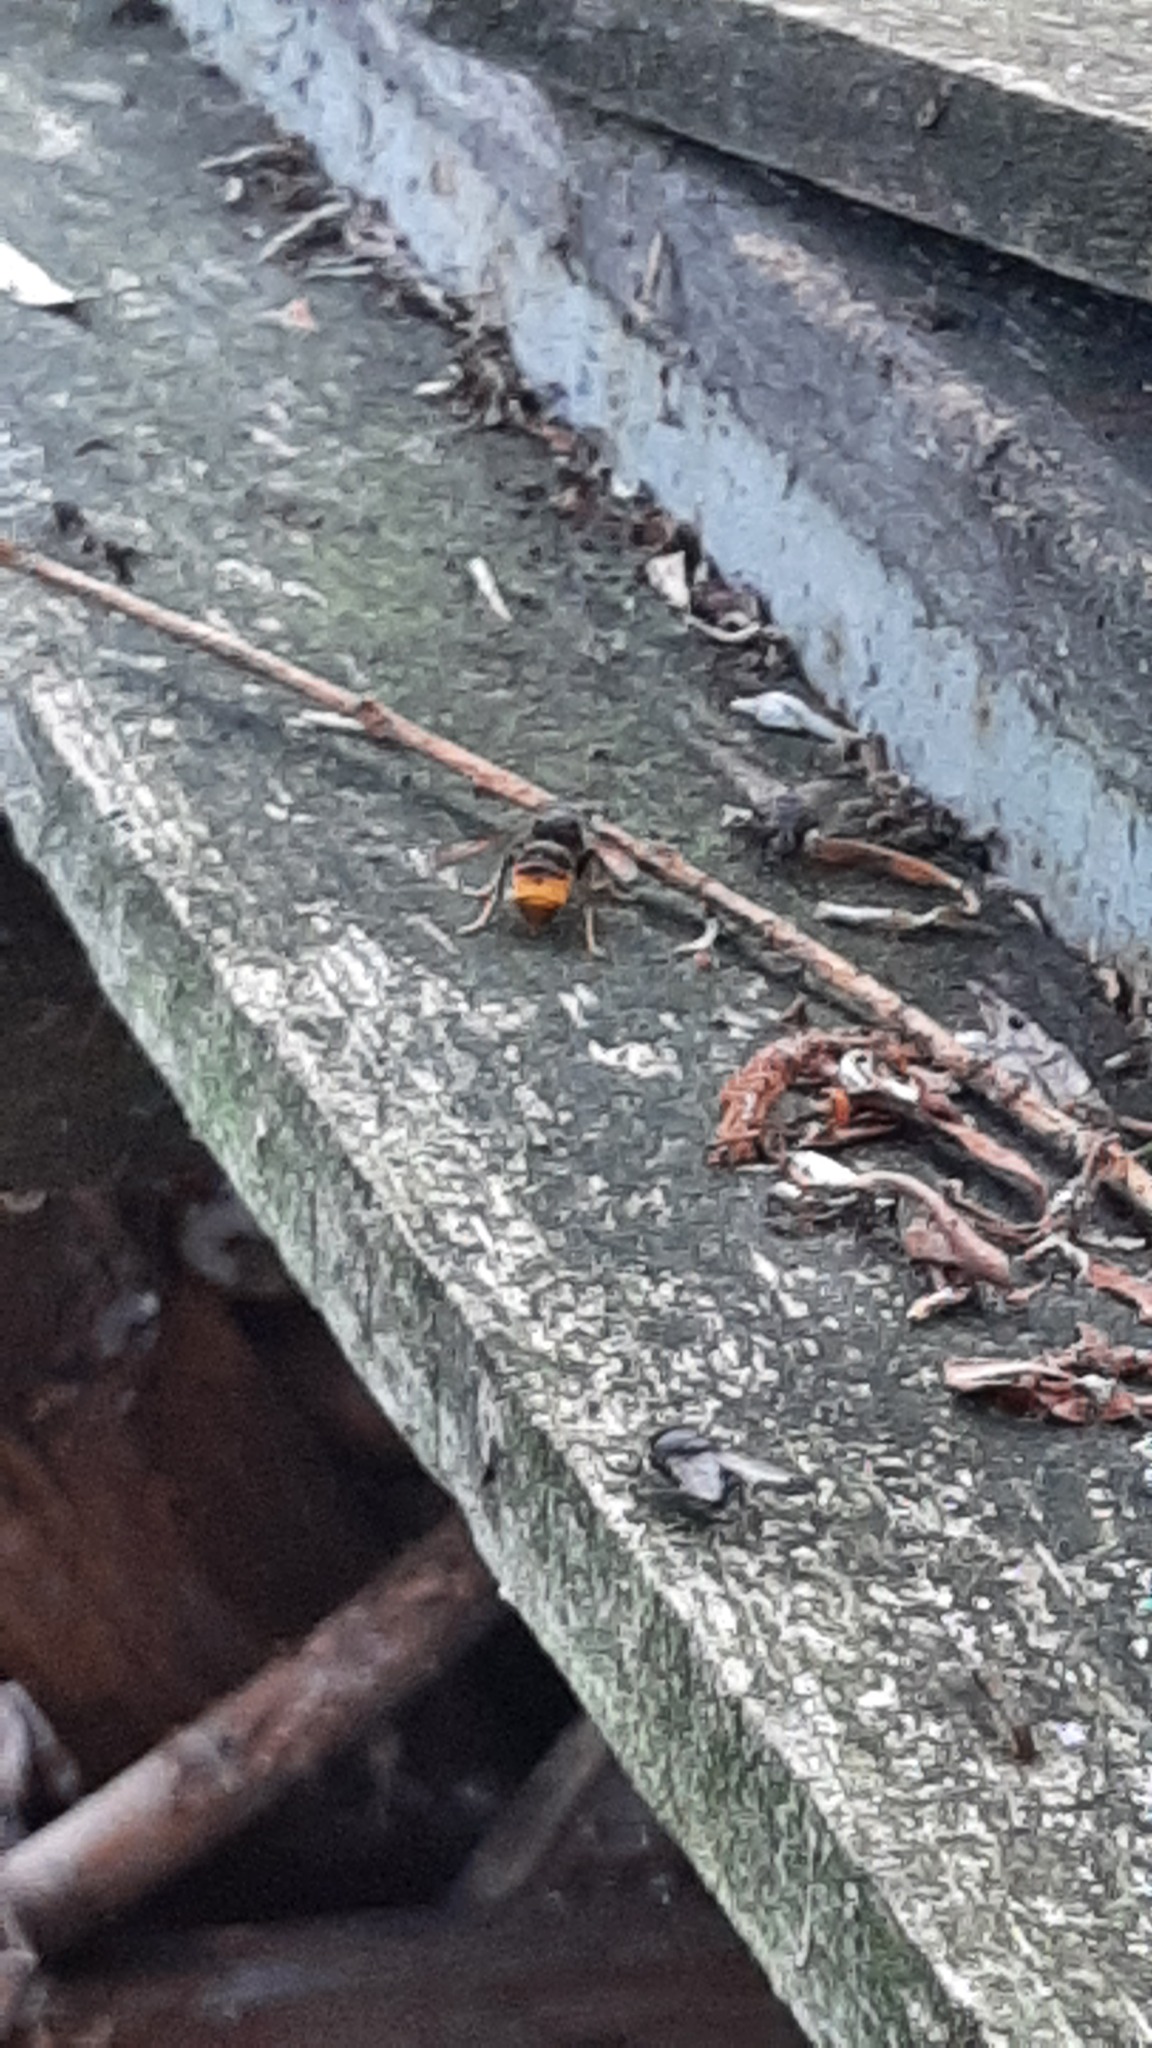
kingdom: Animalia
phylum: Arthropoda
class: Insecta
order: Hymenoptera
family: Vespidae
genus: Vespa
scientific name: Vespa velutina
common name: Asian hornet
